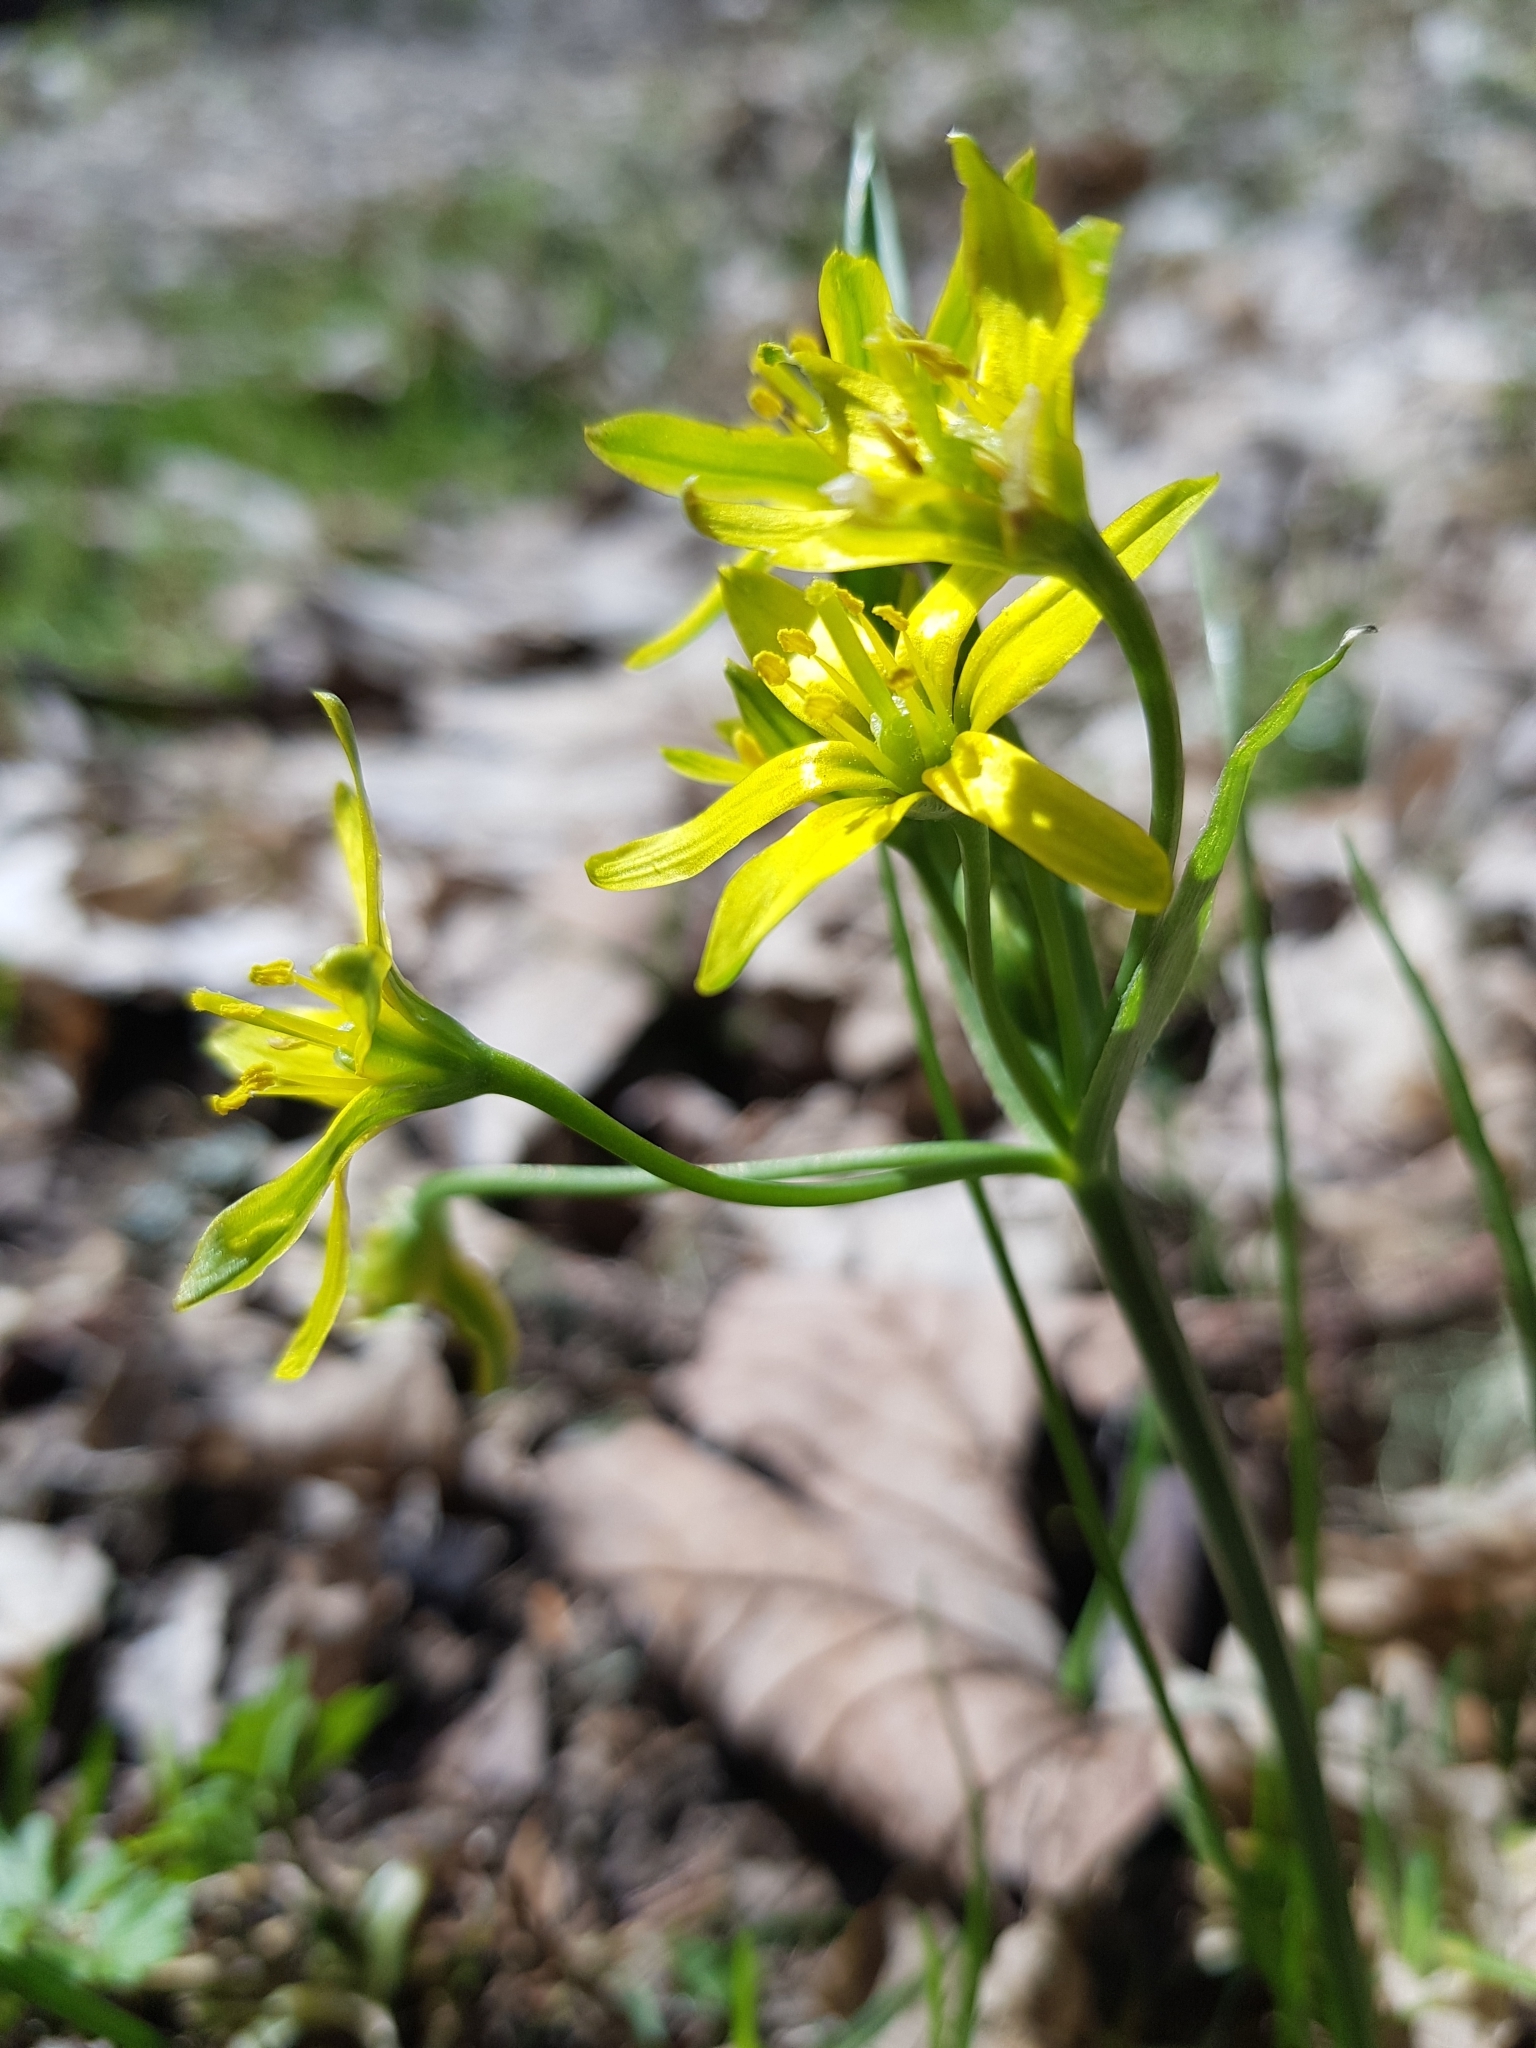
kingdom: Plantae
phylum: Tracheophyta
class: Liliopsida
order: Liliales
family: Liliaceae
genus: Gagea
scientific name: Gagea lutea
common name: Yellow star-of-bethlehem
